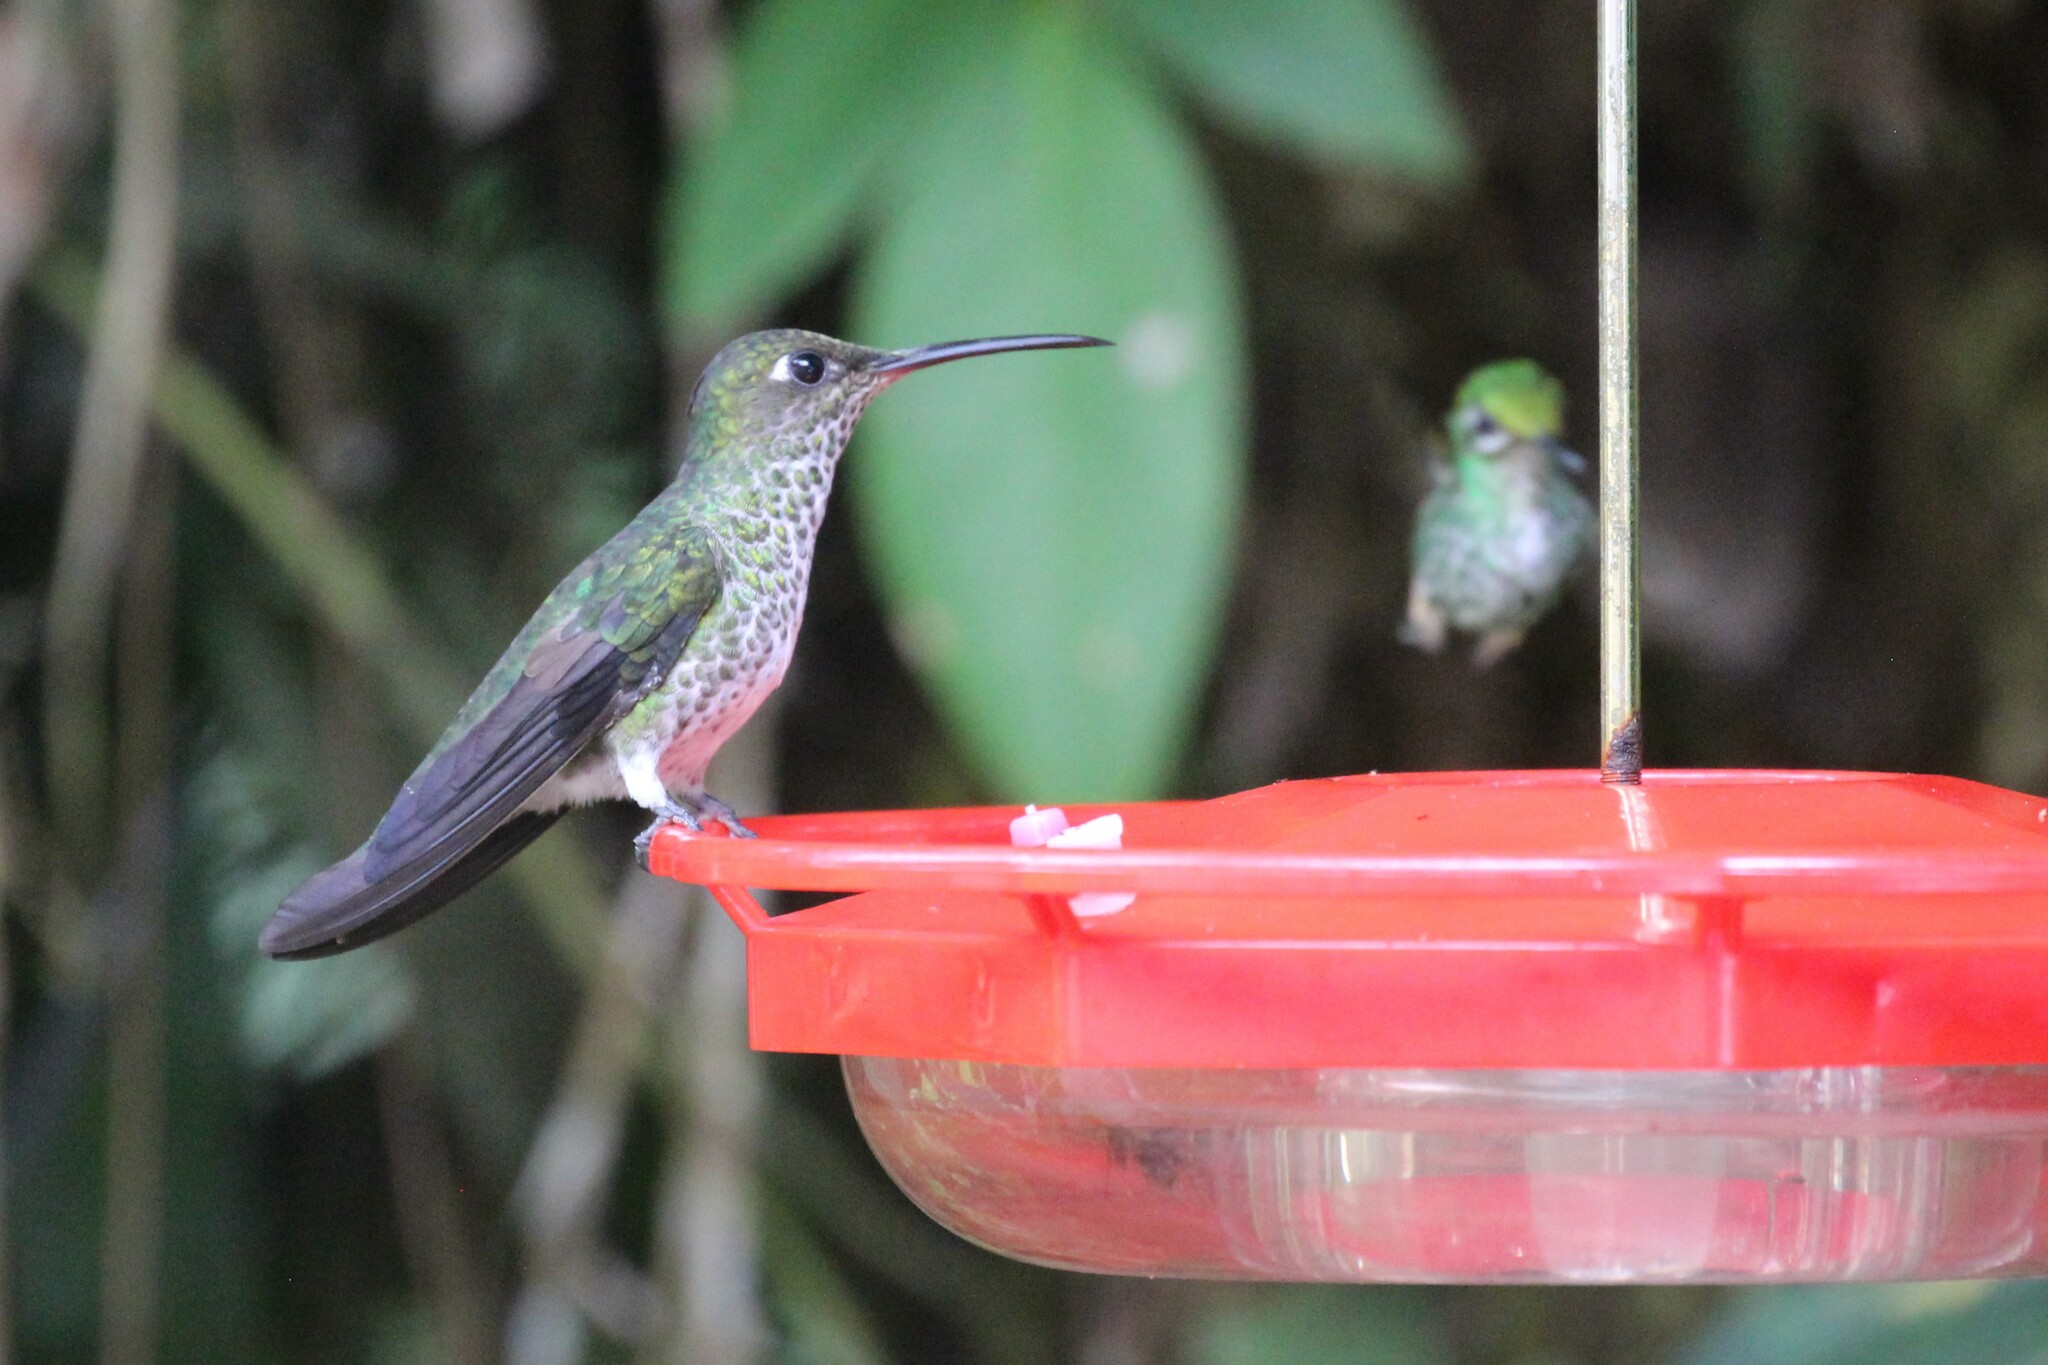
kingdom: Animalia
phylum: Chordata
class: Aves
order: Apodiformes
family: Trochilidae
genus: Taphrospilus
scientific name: Taphrospilus hypostictus
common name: Many-spotted hummingbird
